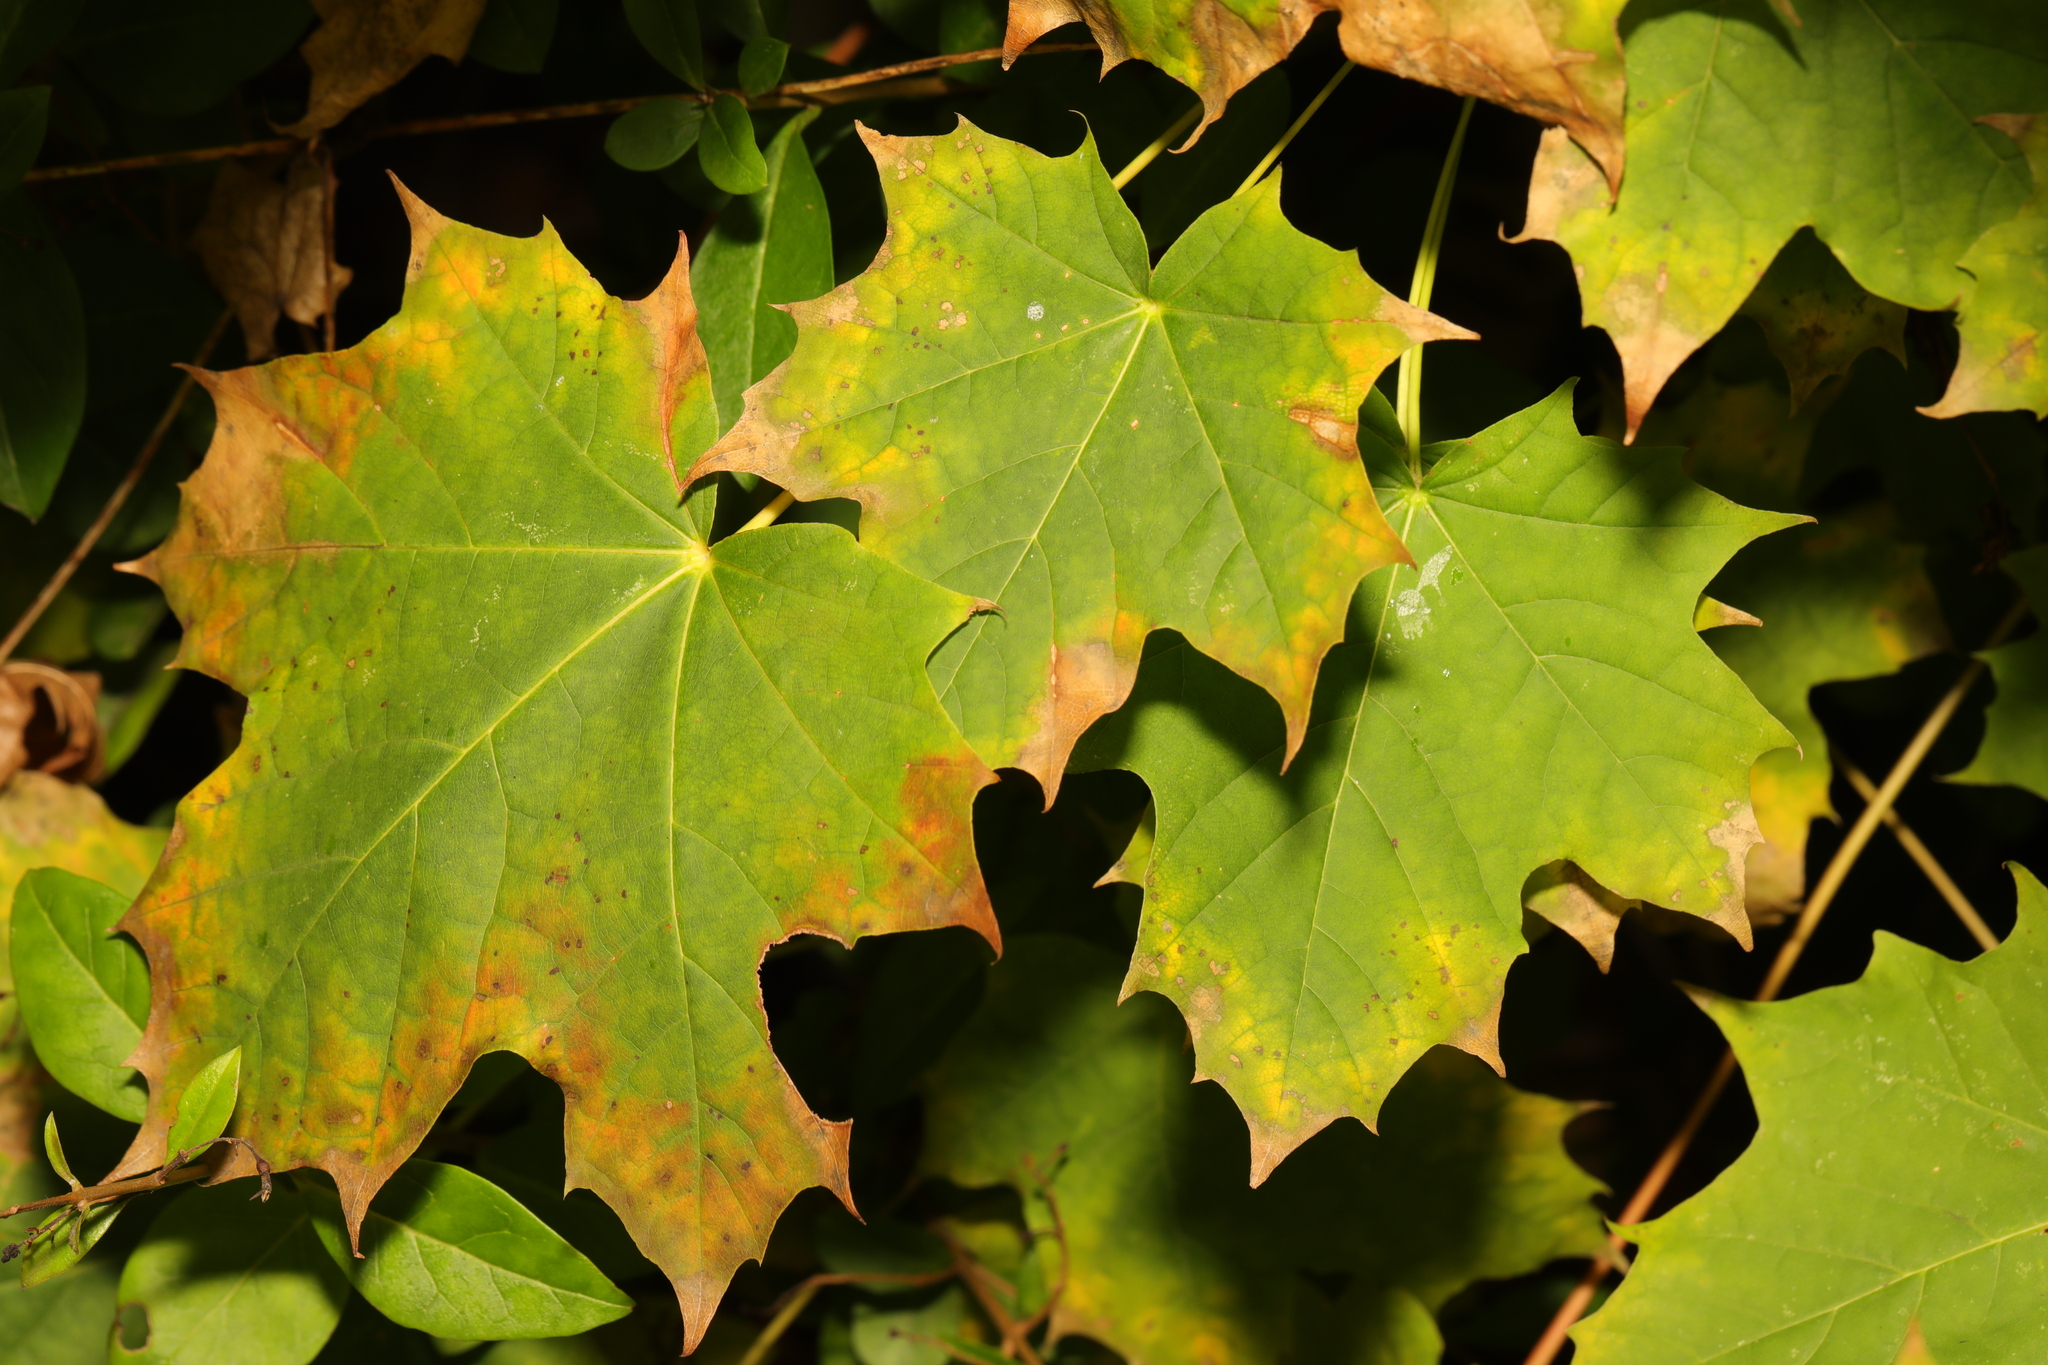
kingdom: Plantae
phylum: Tracheophyta
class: Magnoliopsida
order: Sapindales
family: Sapindaceae
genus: Acer
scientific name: Acer platanoides
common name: Norway maple
